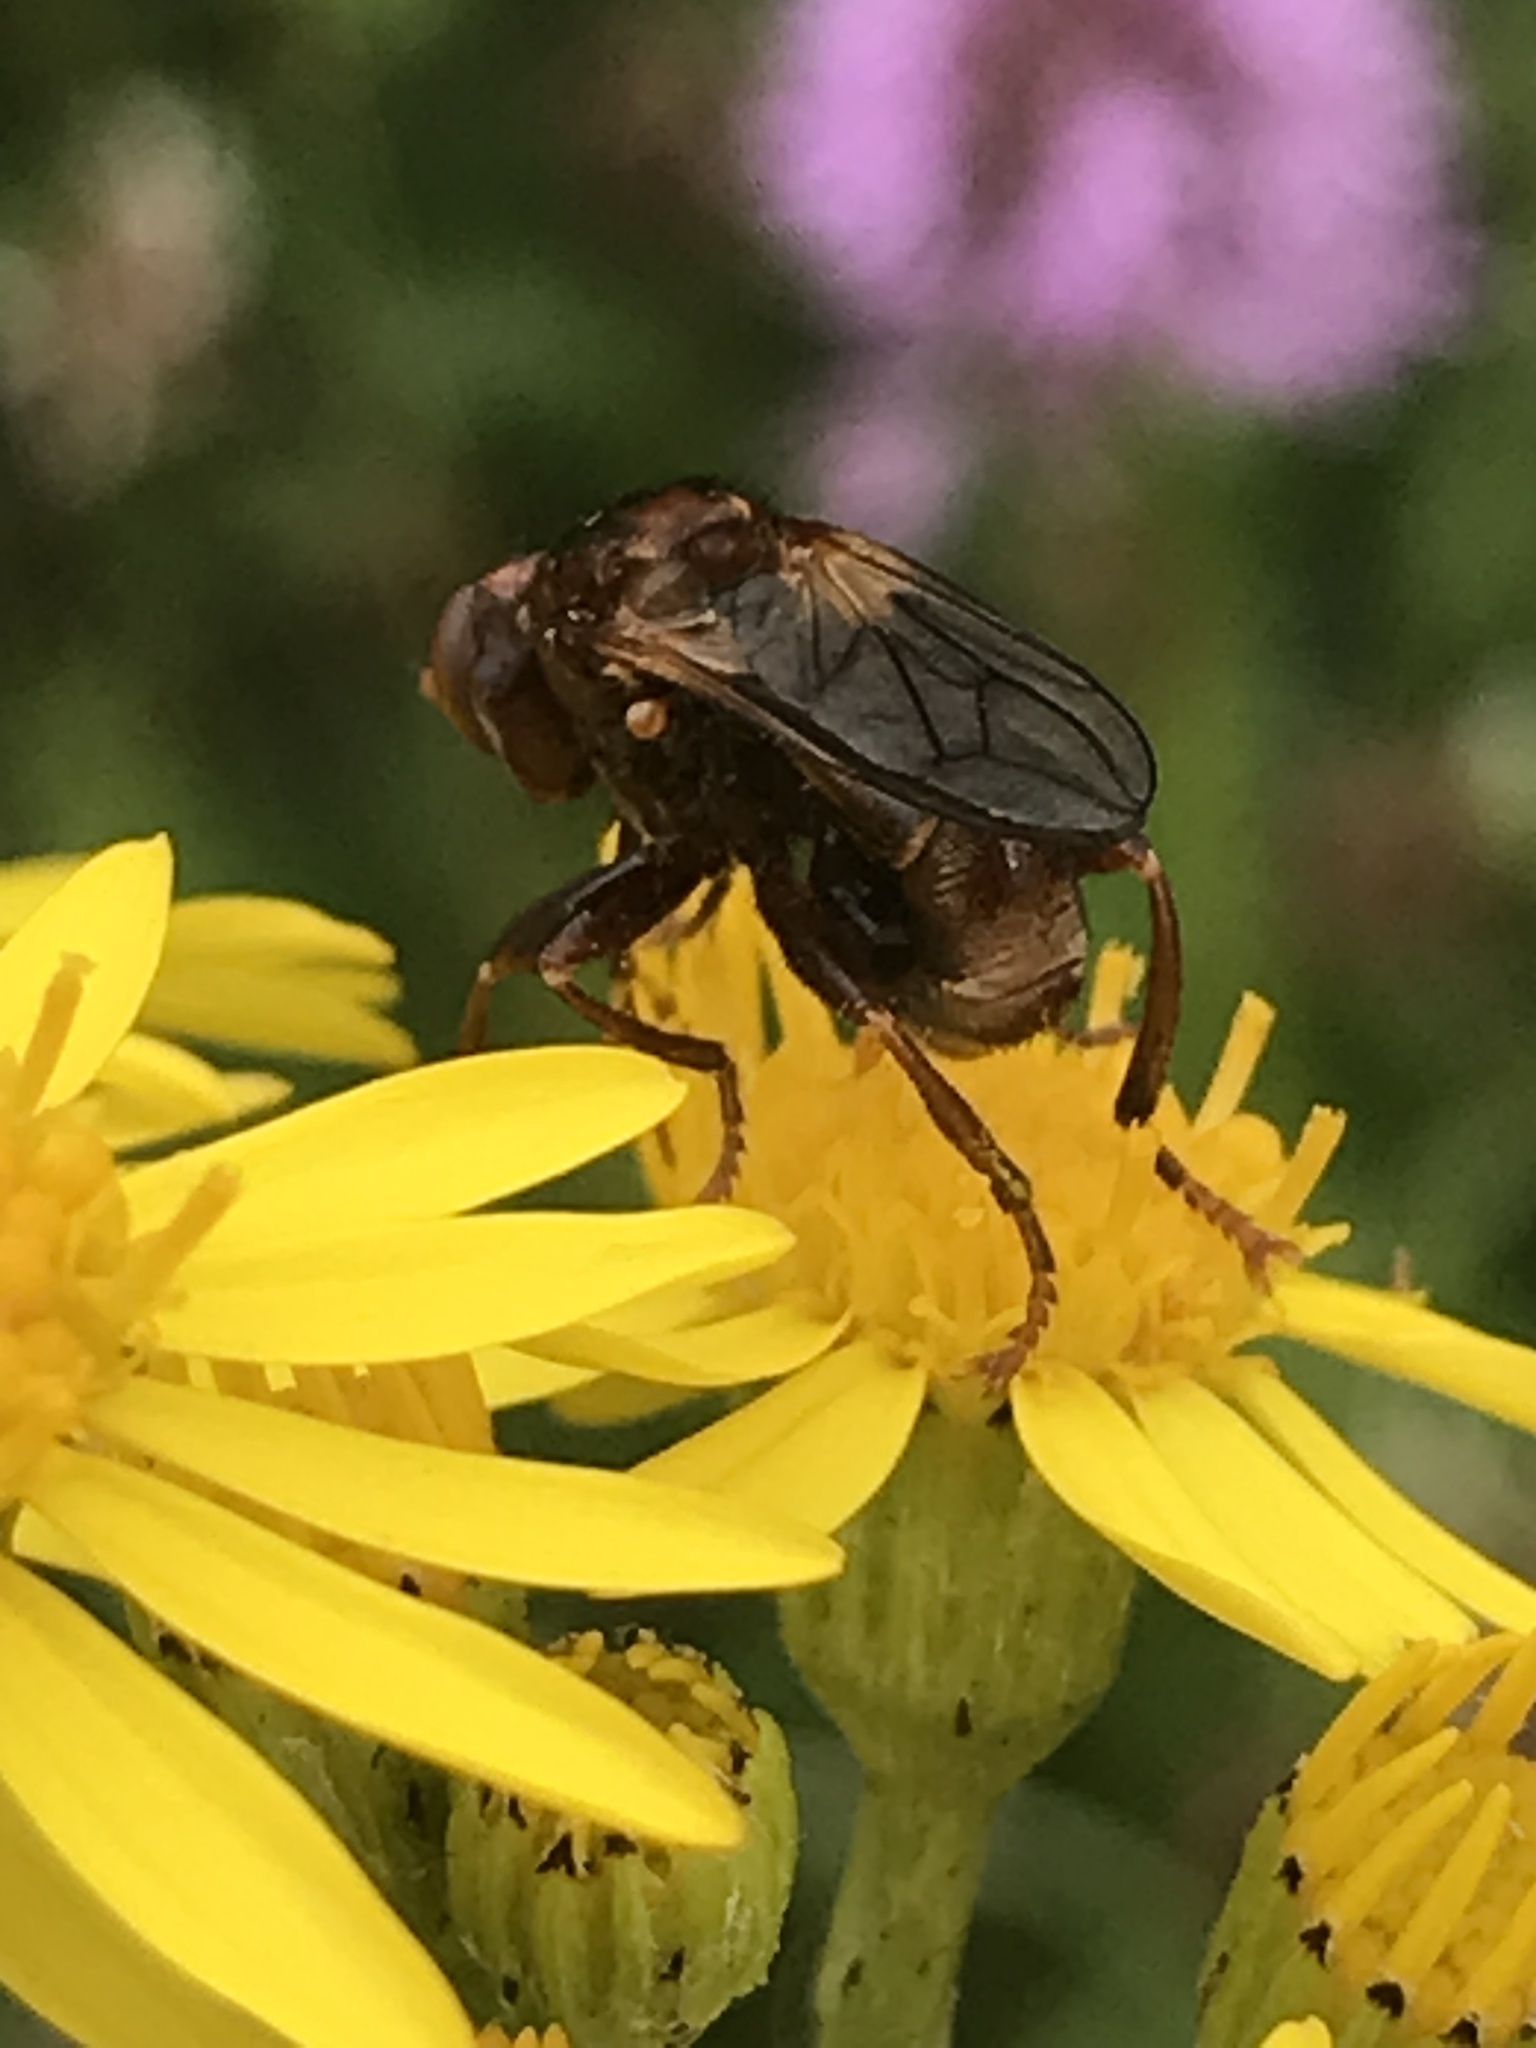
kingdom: Animalia
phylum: Arthropoda
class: Insecta
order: Diptera
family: Conopidae
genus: Sicus
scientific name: Sicus ferrugineus
